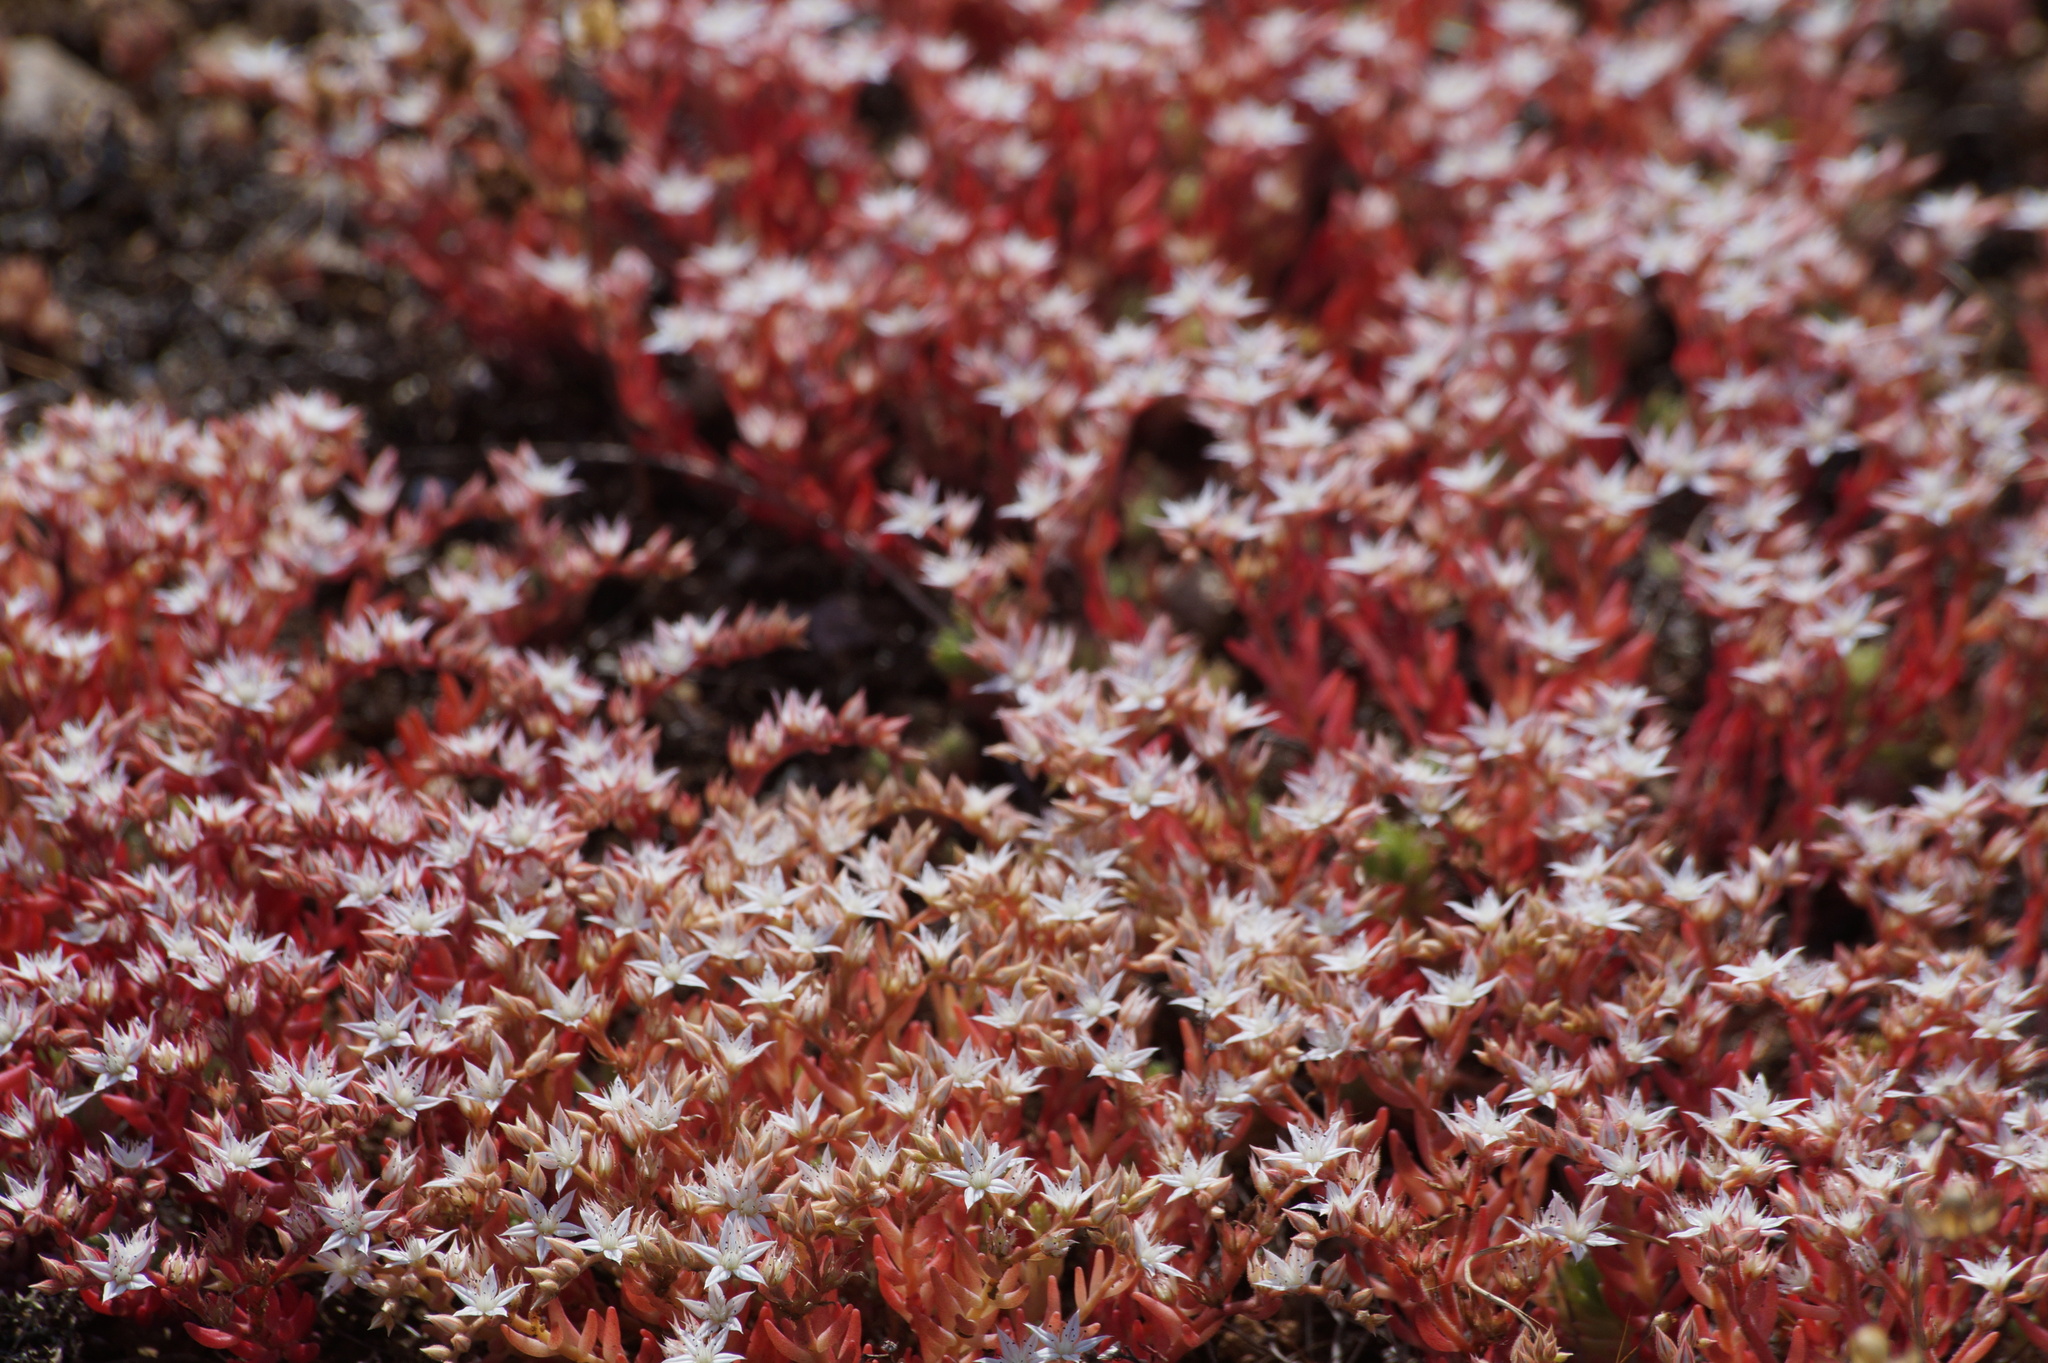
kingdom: Plantae
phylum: Tracheophyta
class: Magnoliopsida
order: Saxifragales
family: Crassulaceae
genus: Sedum
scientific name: Sedum pallidum
